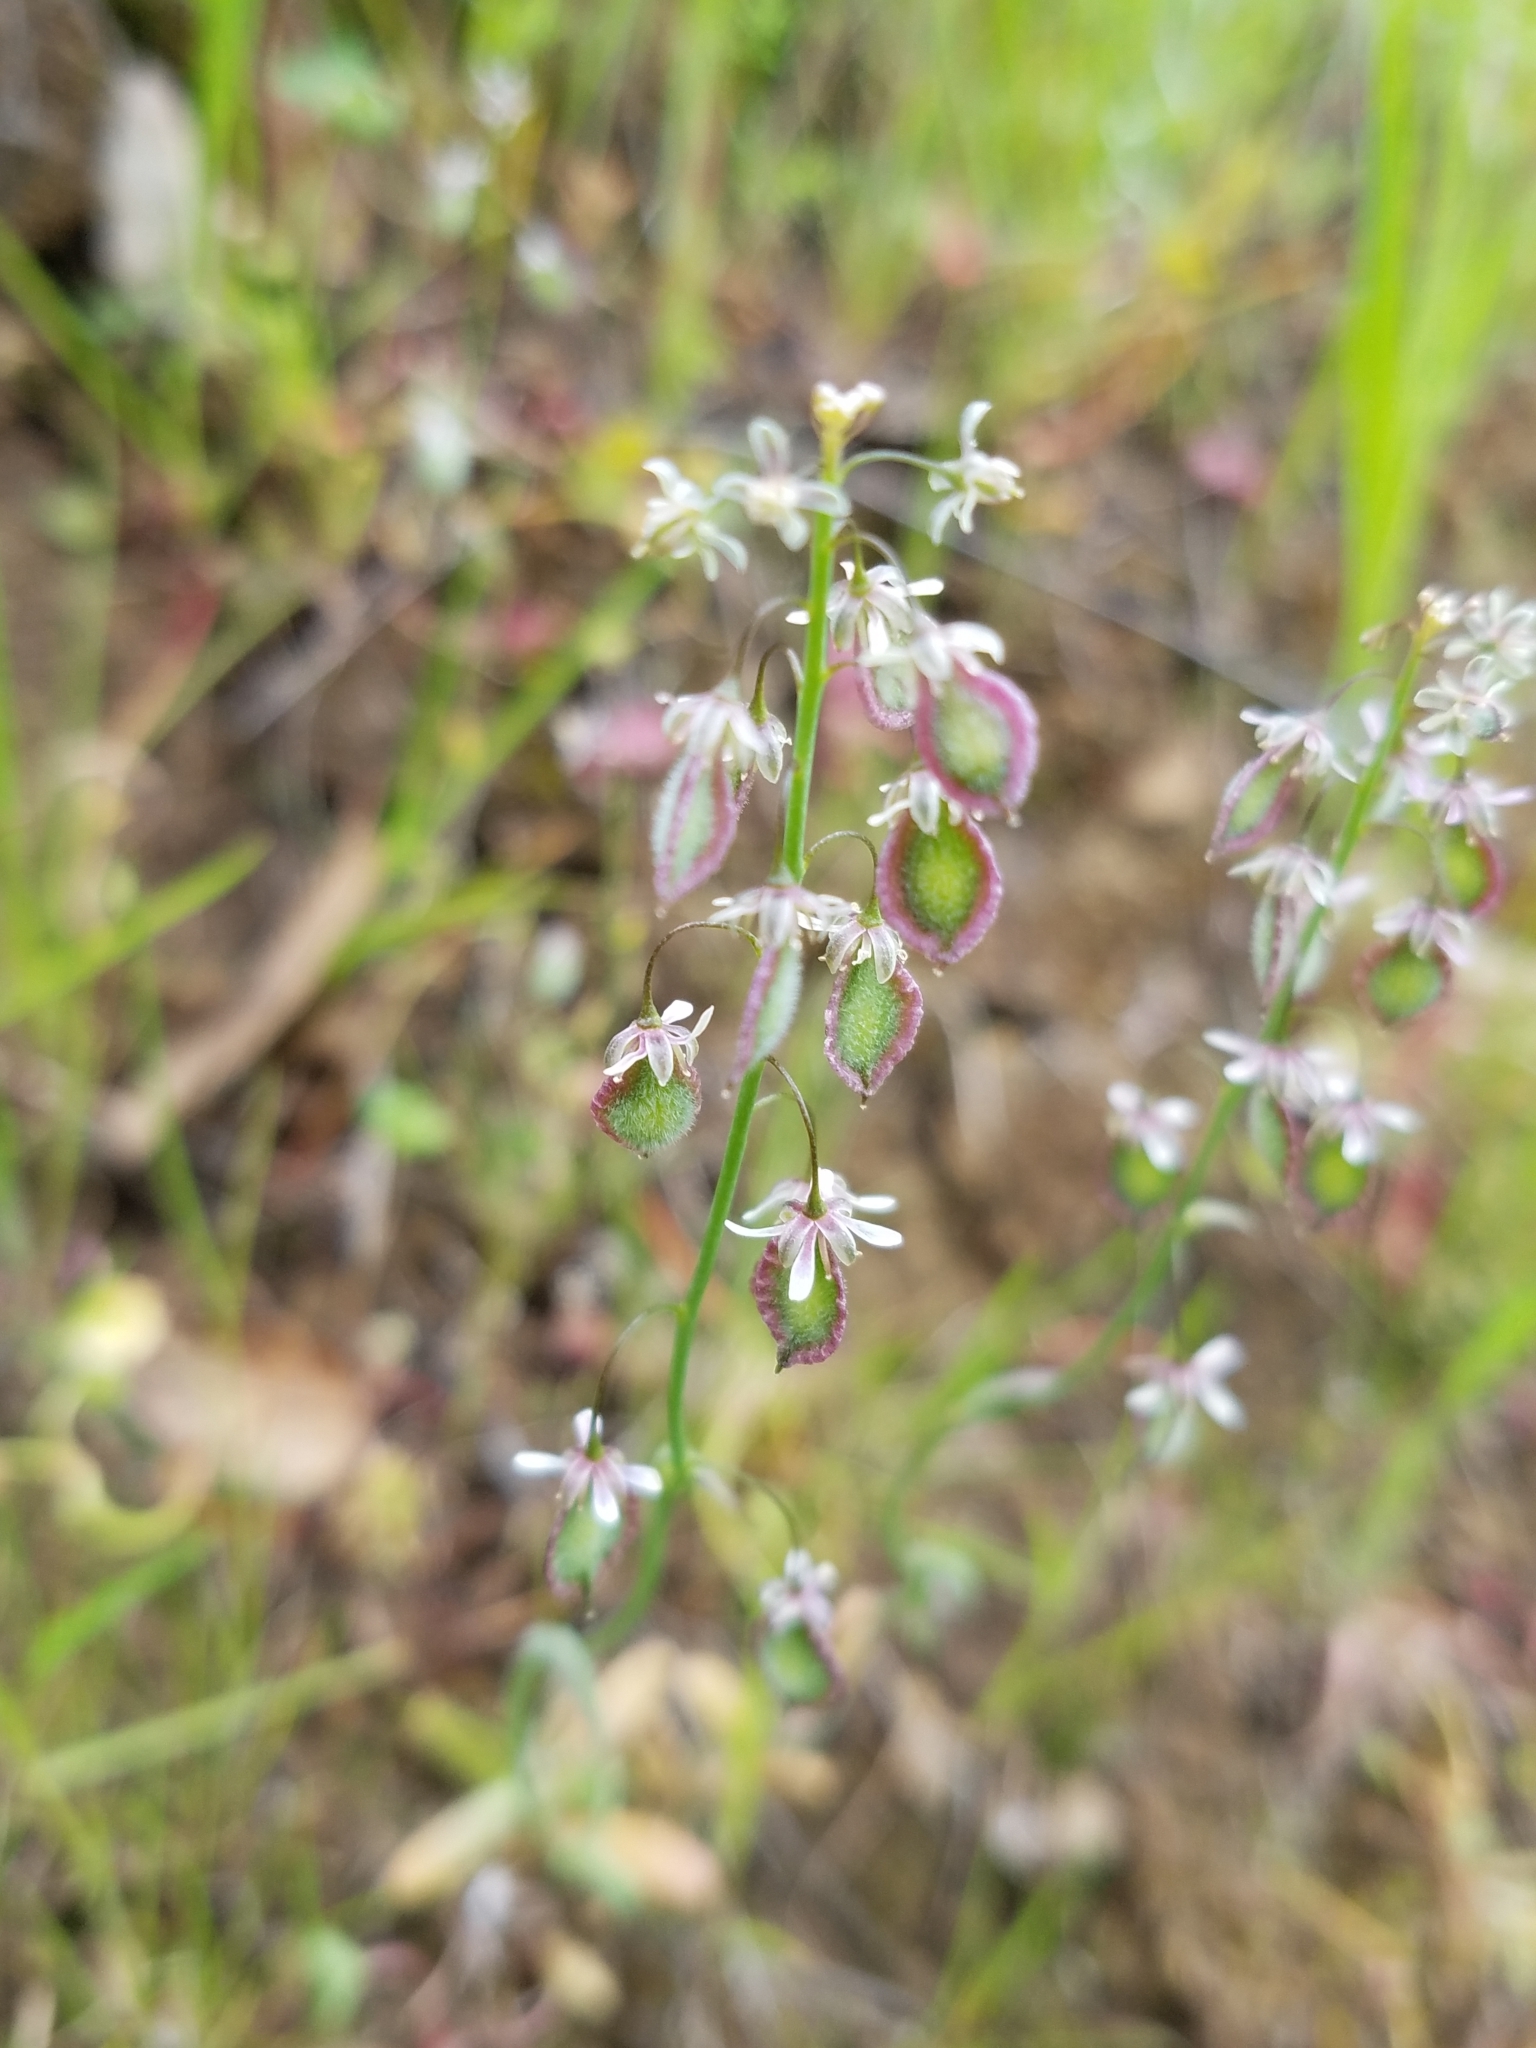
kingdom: Plantae
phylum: Tracheophyta
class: Magnoliopsida
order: Brassicales
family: Brassicaceae
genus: Thysanocarpus
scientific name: Thysanocarpus curvipes
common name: Sand fringepod
